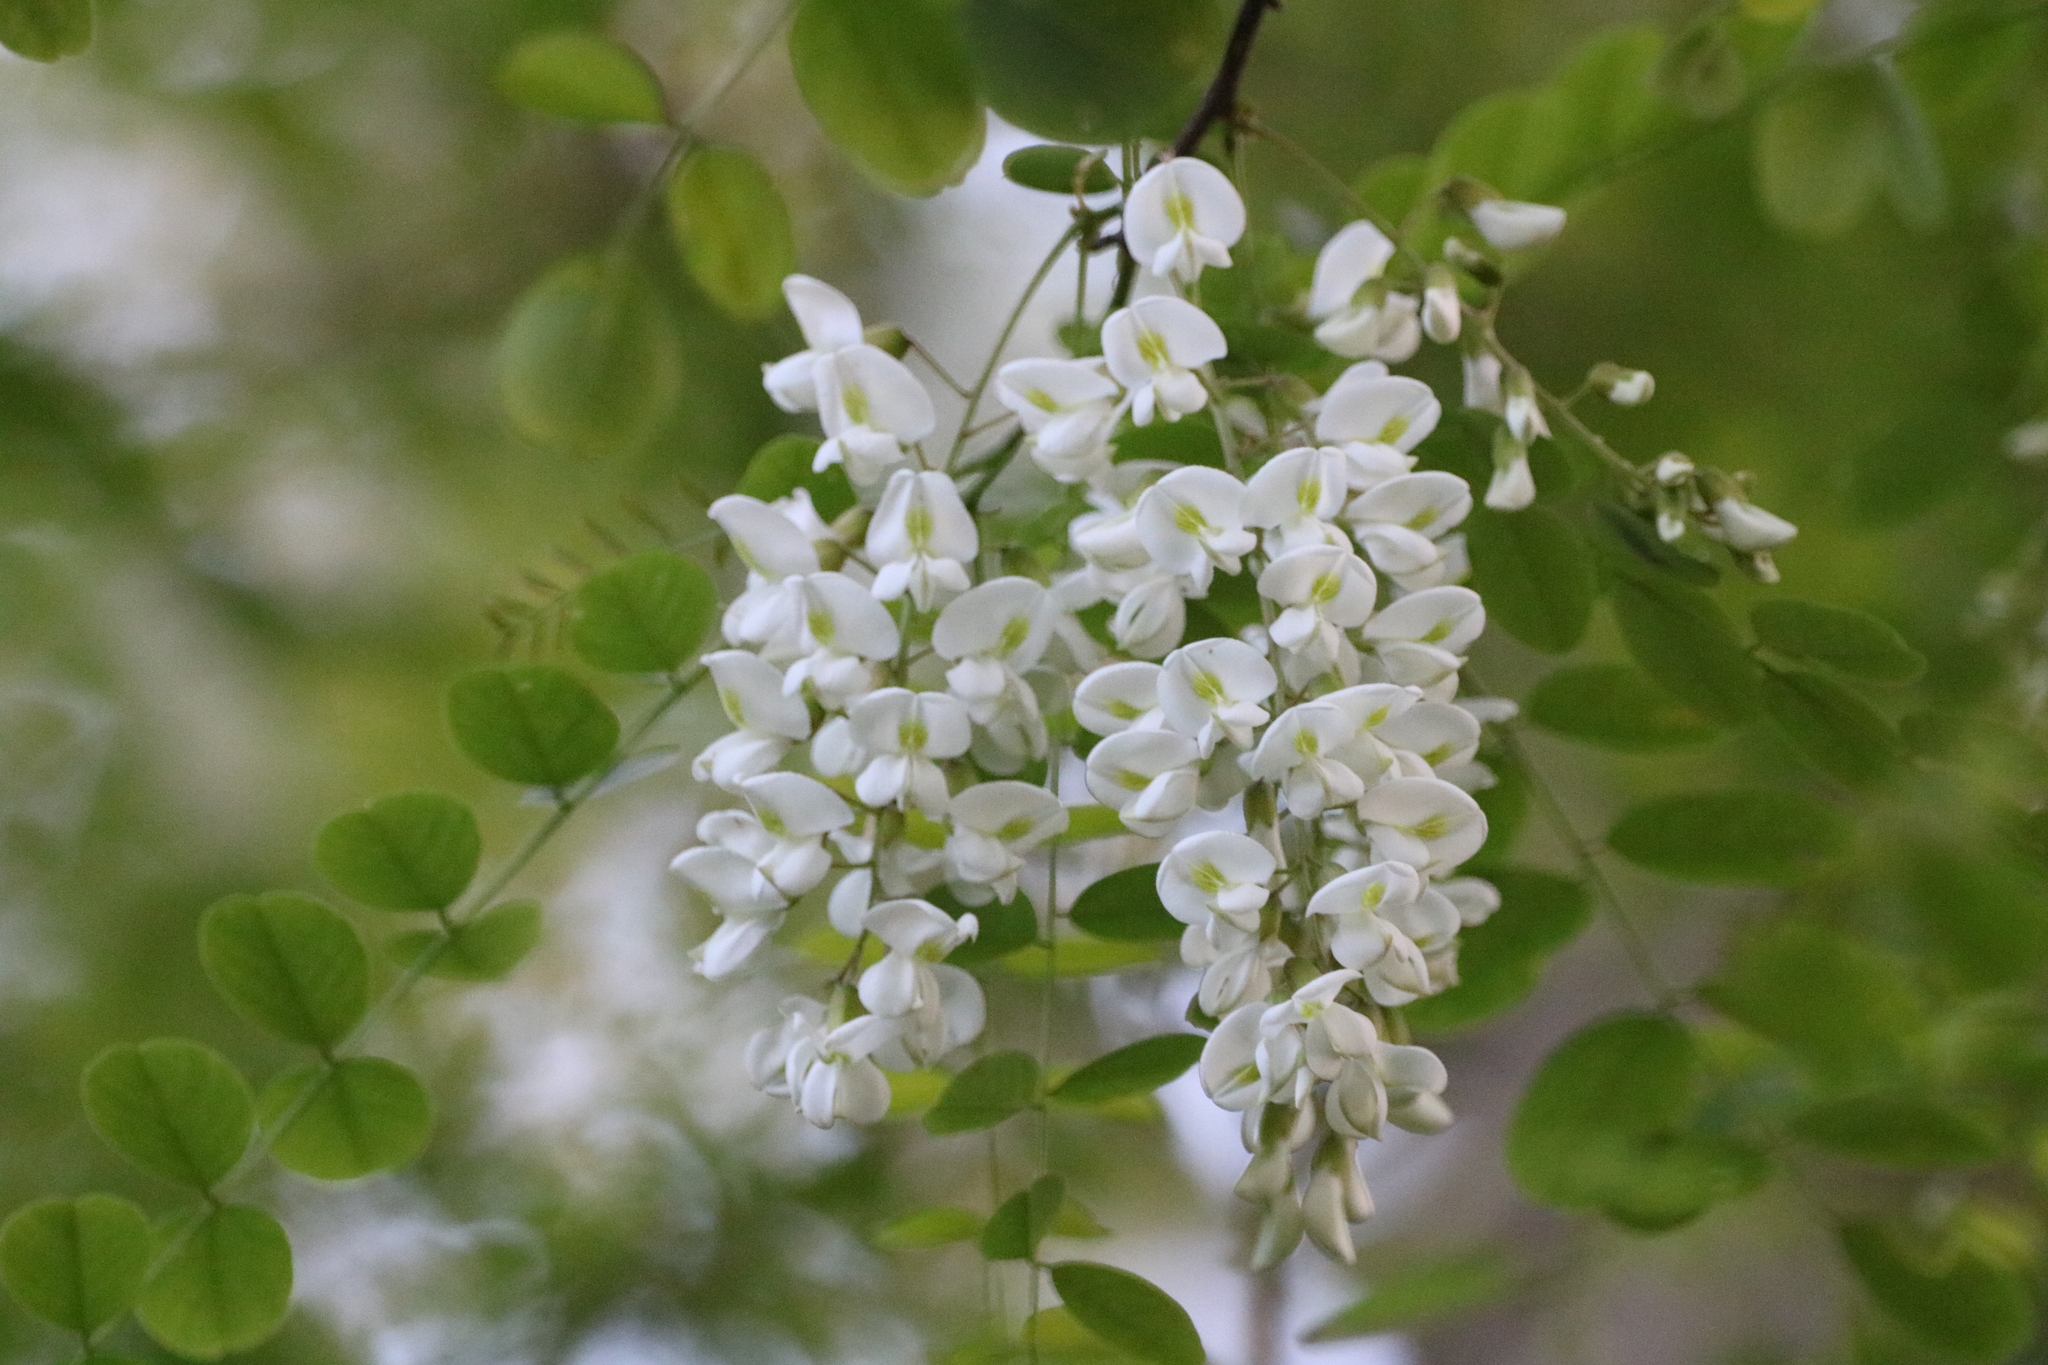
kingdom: Plantae
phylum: Tracheophyta
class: Magnoliopsida
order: Fabales
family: Fabaceae
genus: Robinia
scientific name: Robinia pseudoacacia
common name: Black locust
